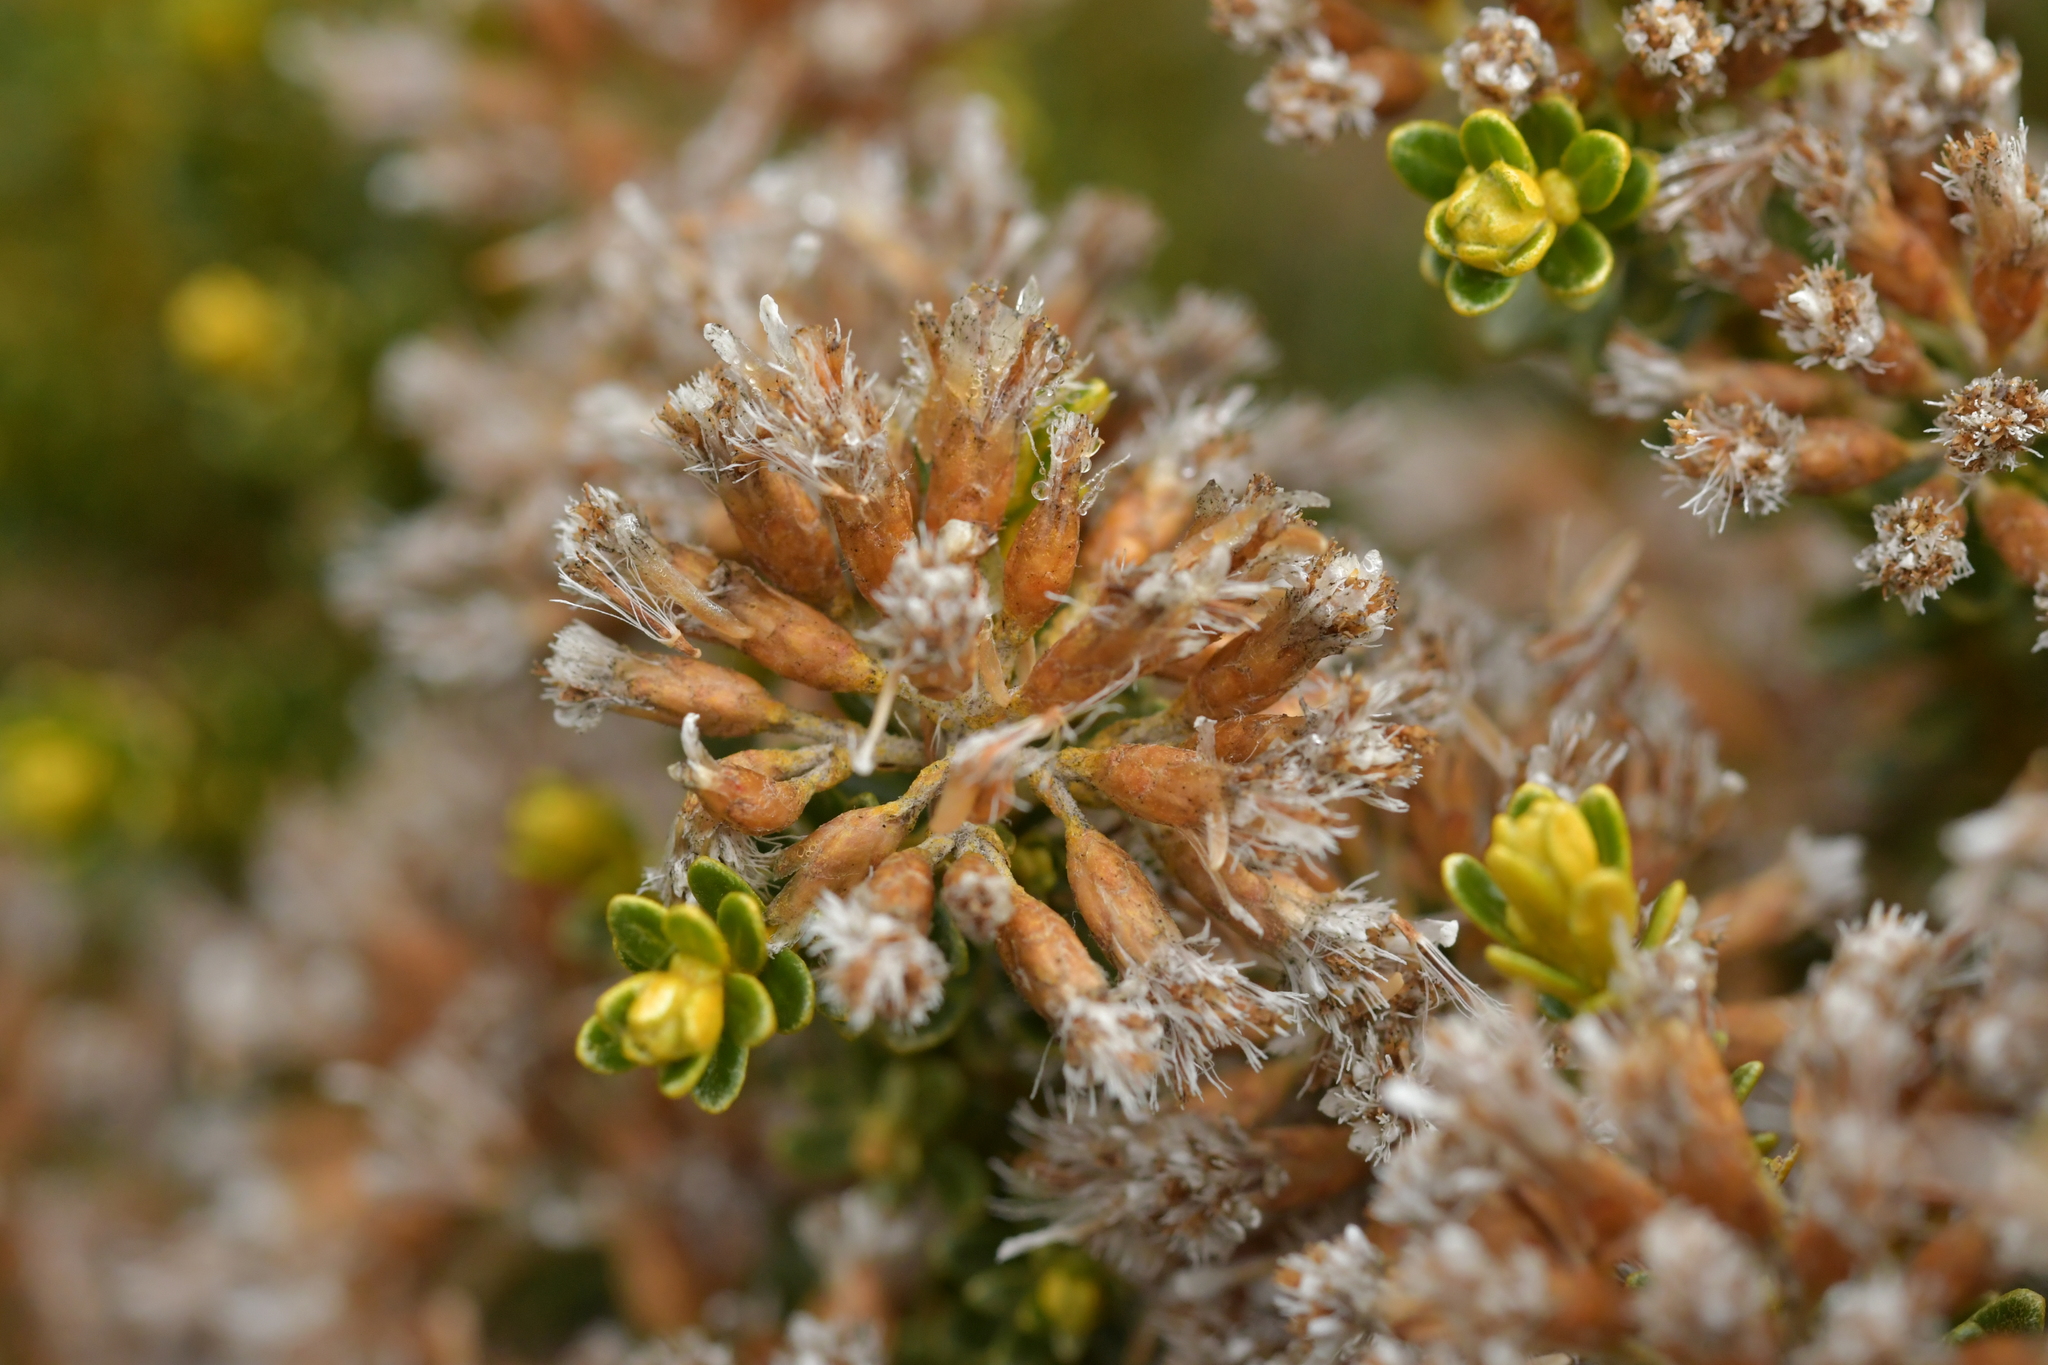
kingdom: Plantae
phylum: Tracheophyta
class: Magnoliopsida
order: Asterales
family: Asteraceae
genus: Ozothamnus
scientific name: Ozothamnus leptophyllus
